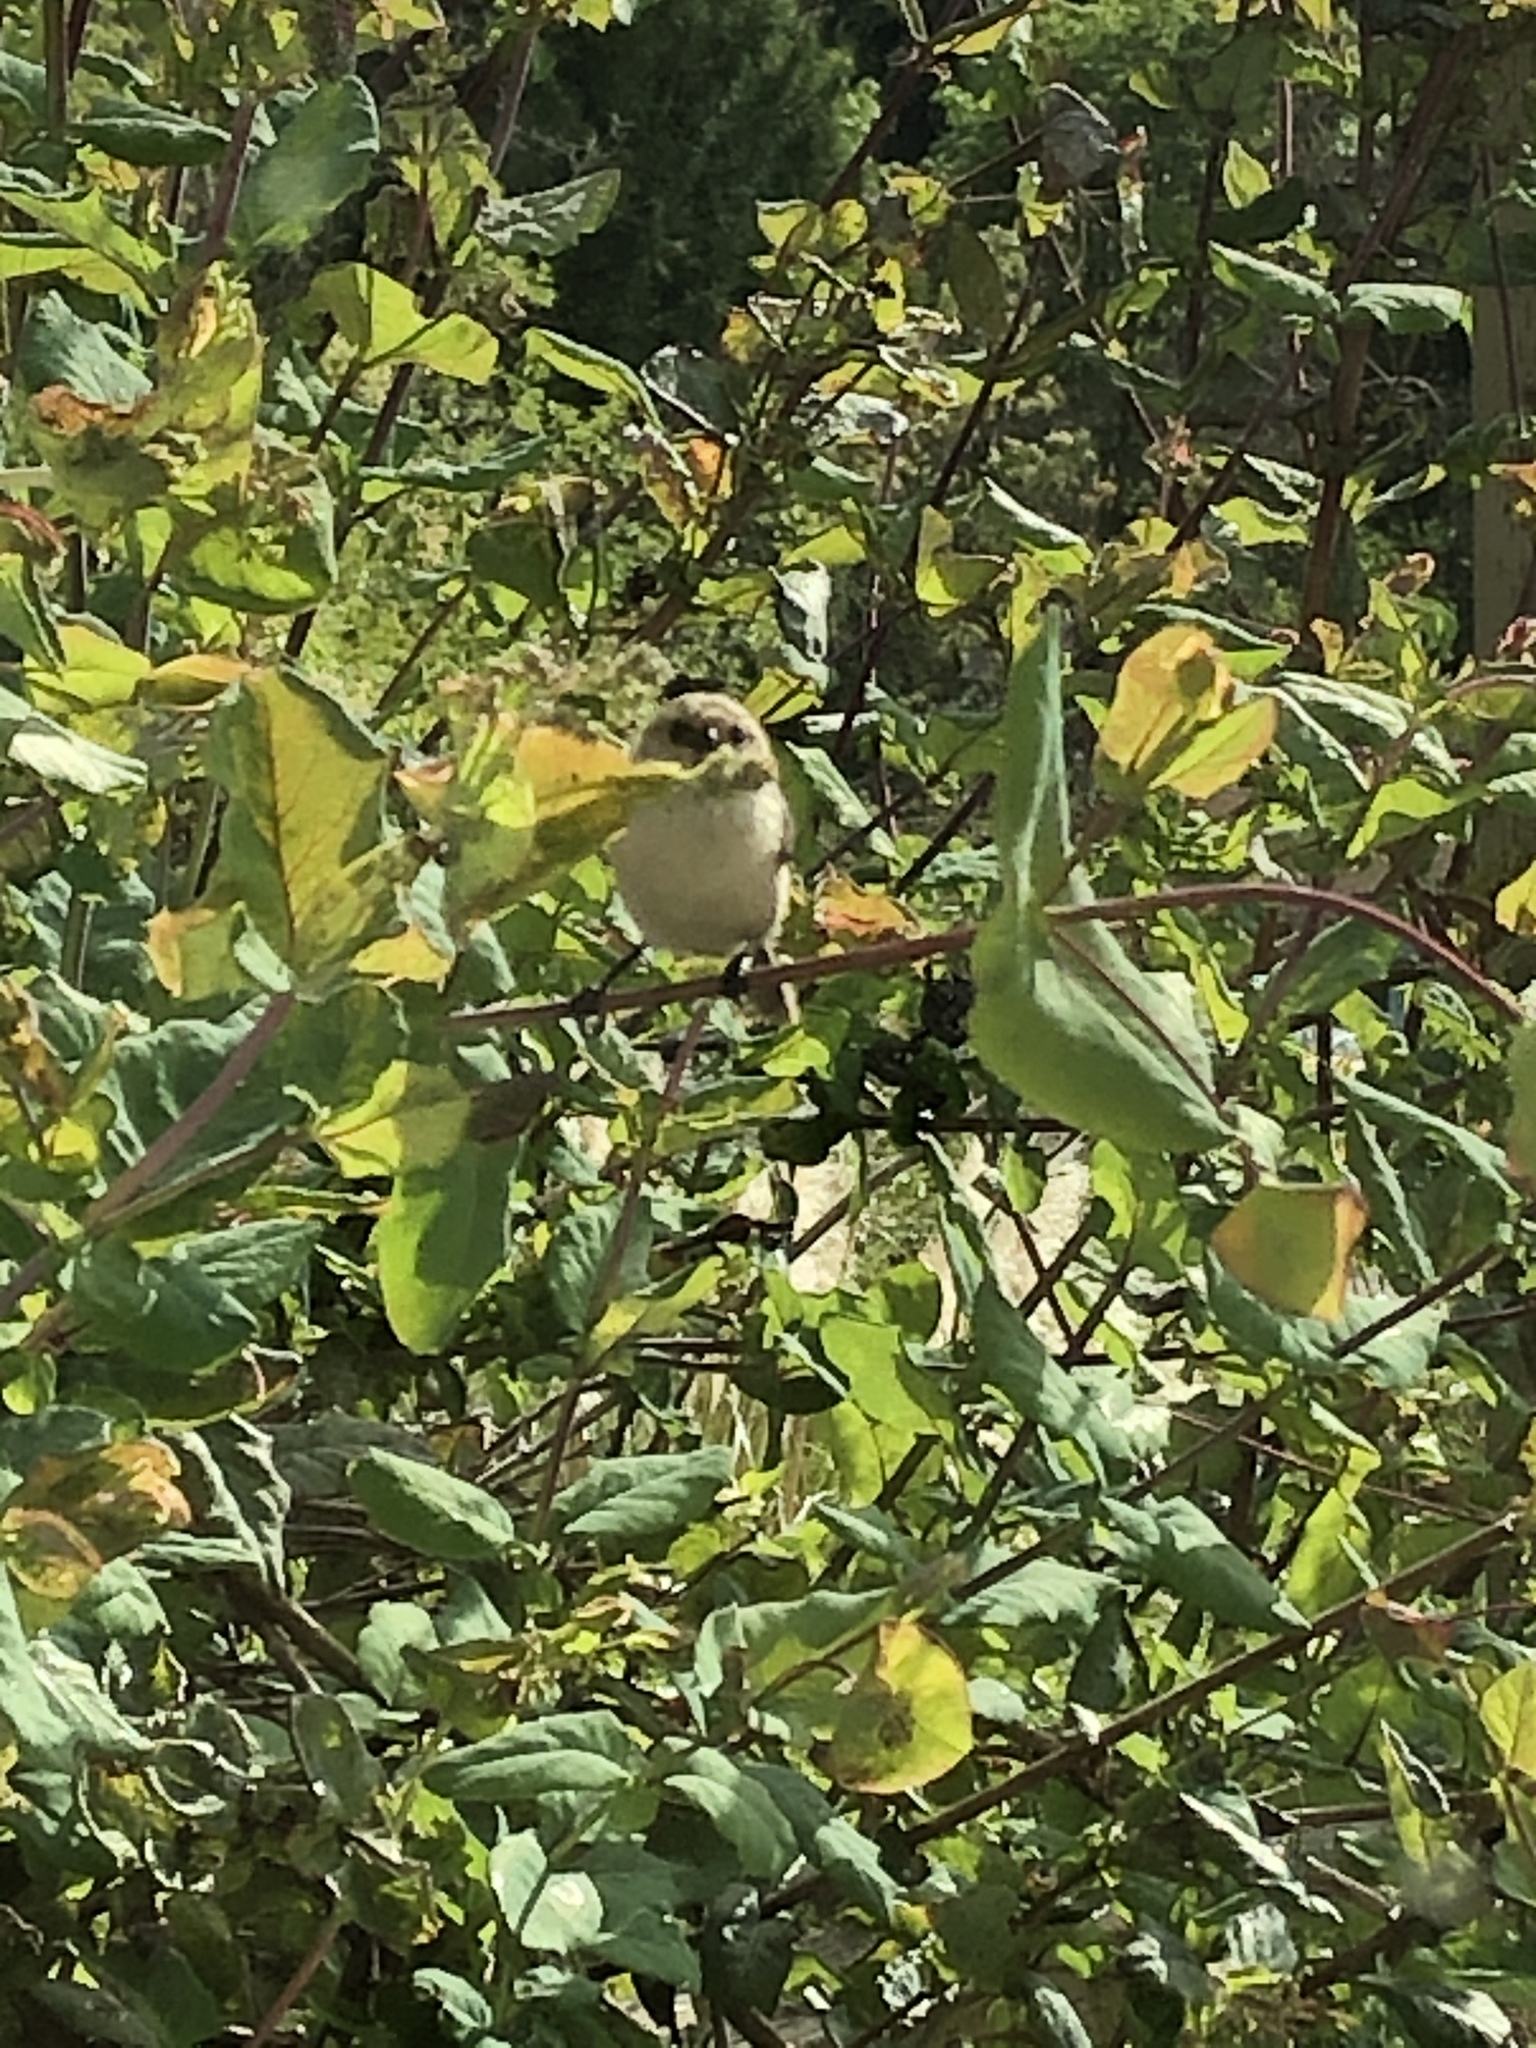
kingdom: Animalia
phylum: Chordata
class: Aves
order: Passeriformes
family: Aegithalidae
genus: Psaltriparus
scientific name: Psaltriparus minimus
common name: American bushtit
